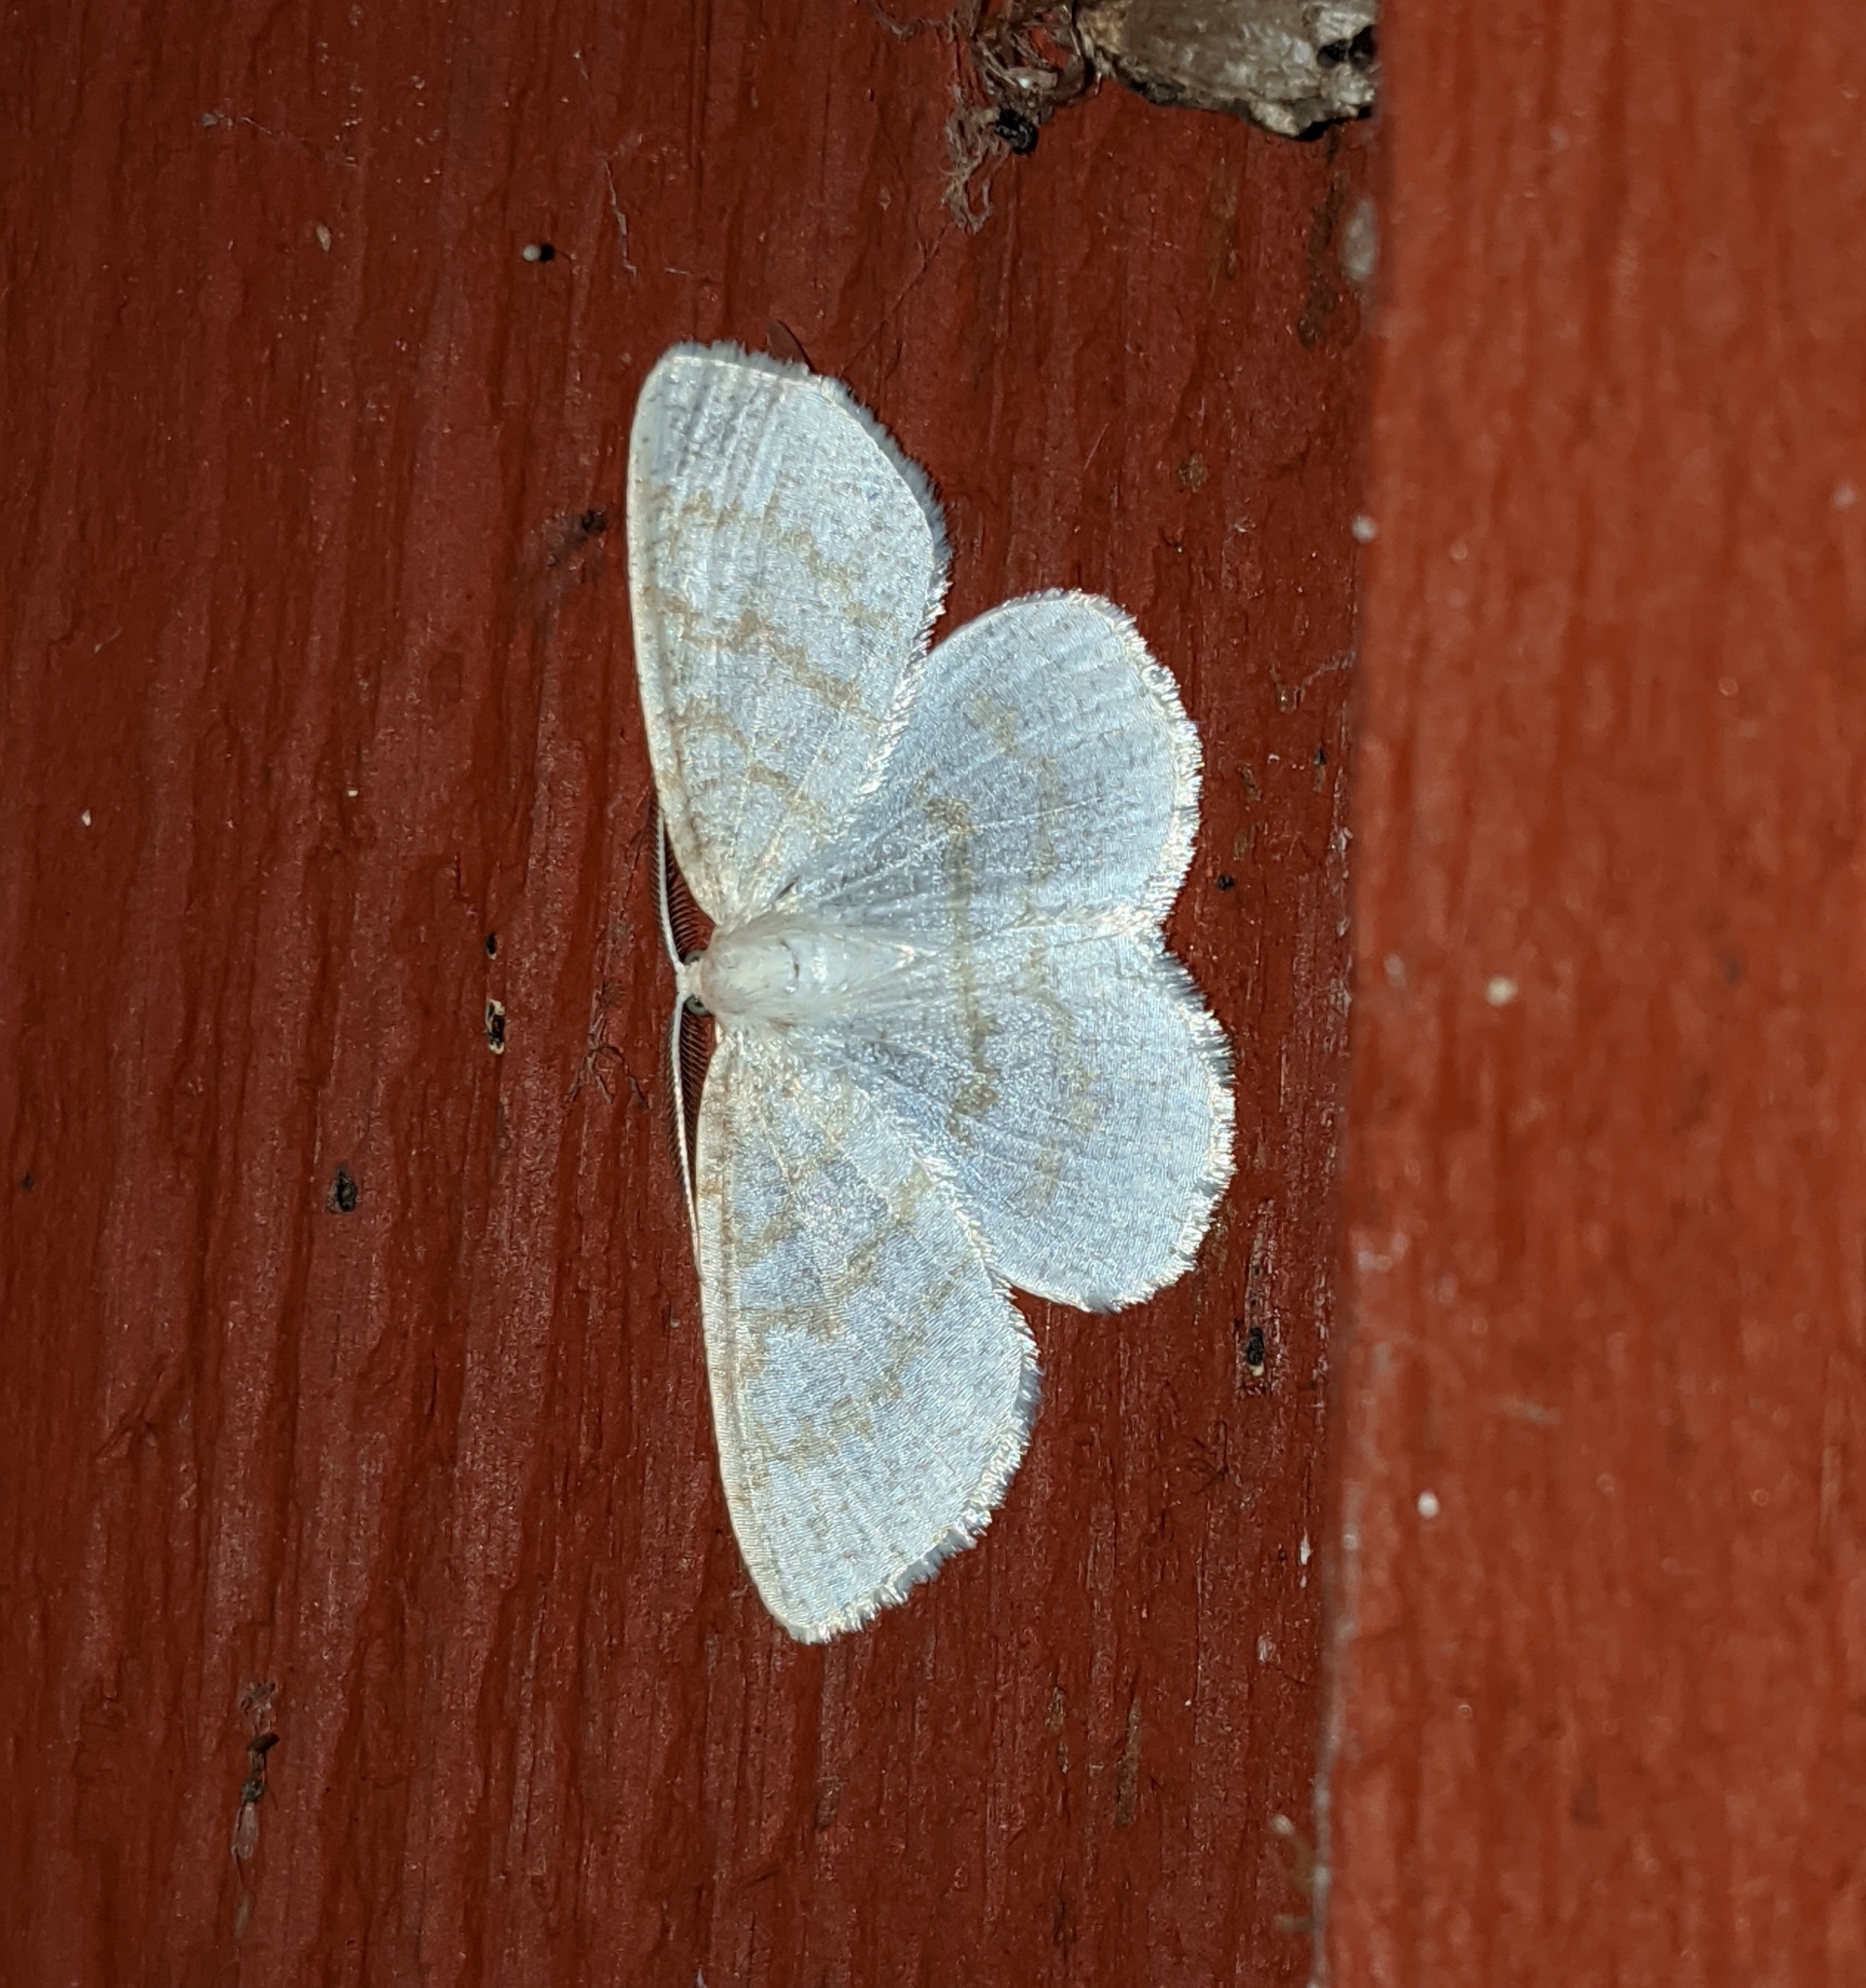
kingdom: Animalia
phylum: Arthropoda
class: Insecta
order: Lepidoptera
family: Geometridae
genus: Cabera
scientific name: Cabera erythemaria
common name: Yellow-dusted cream moth
